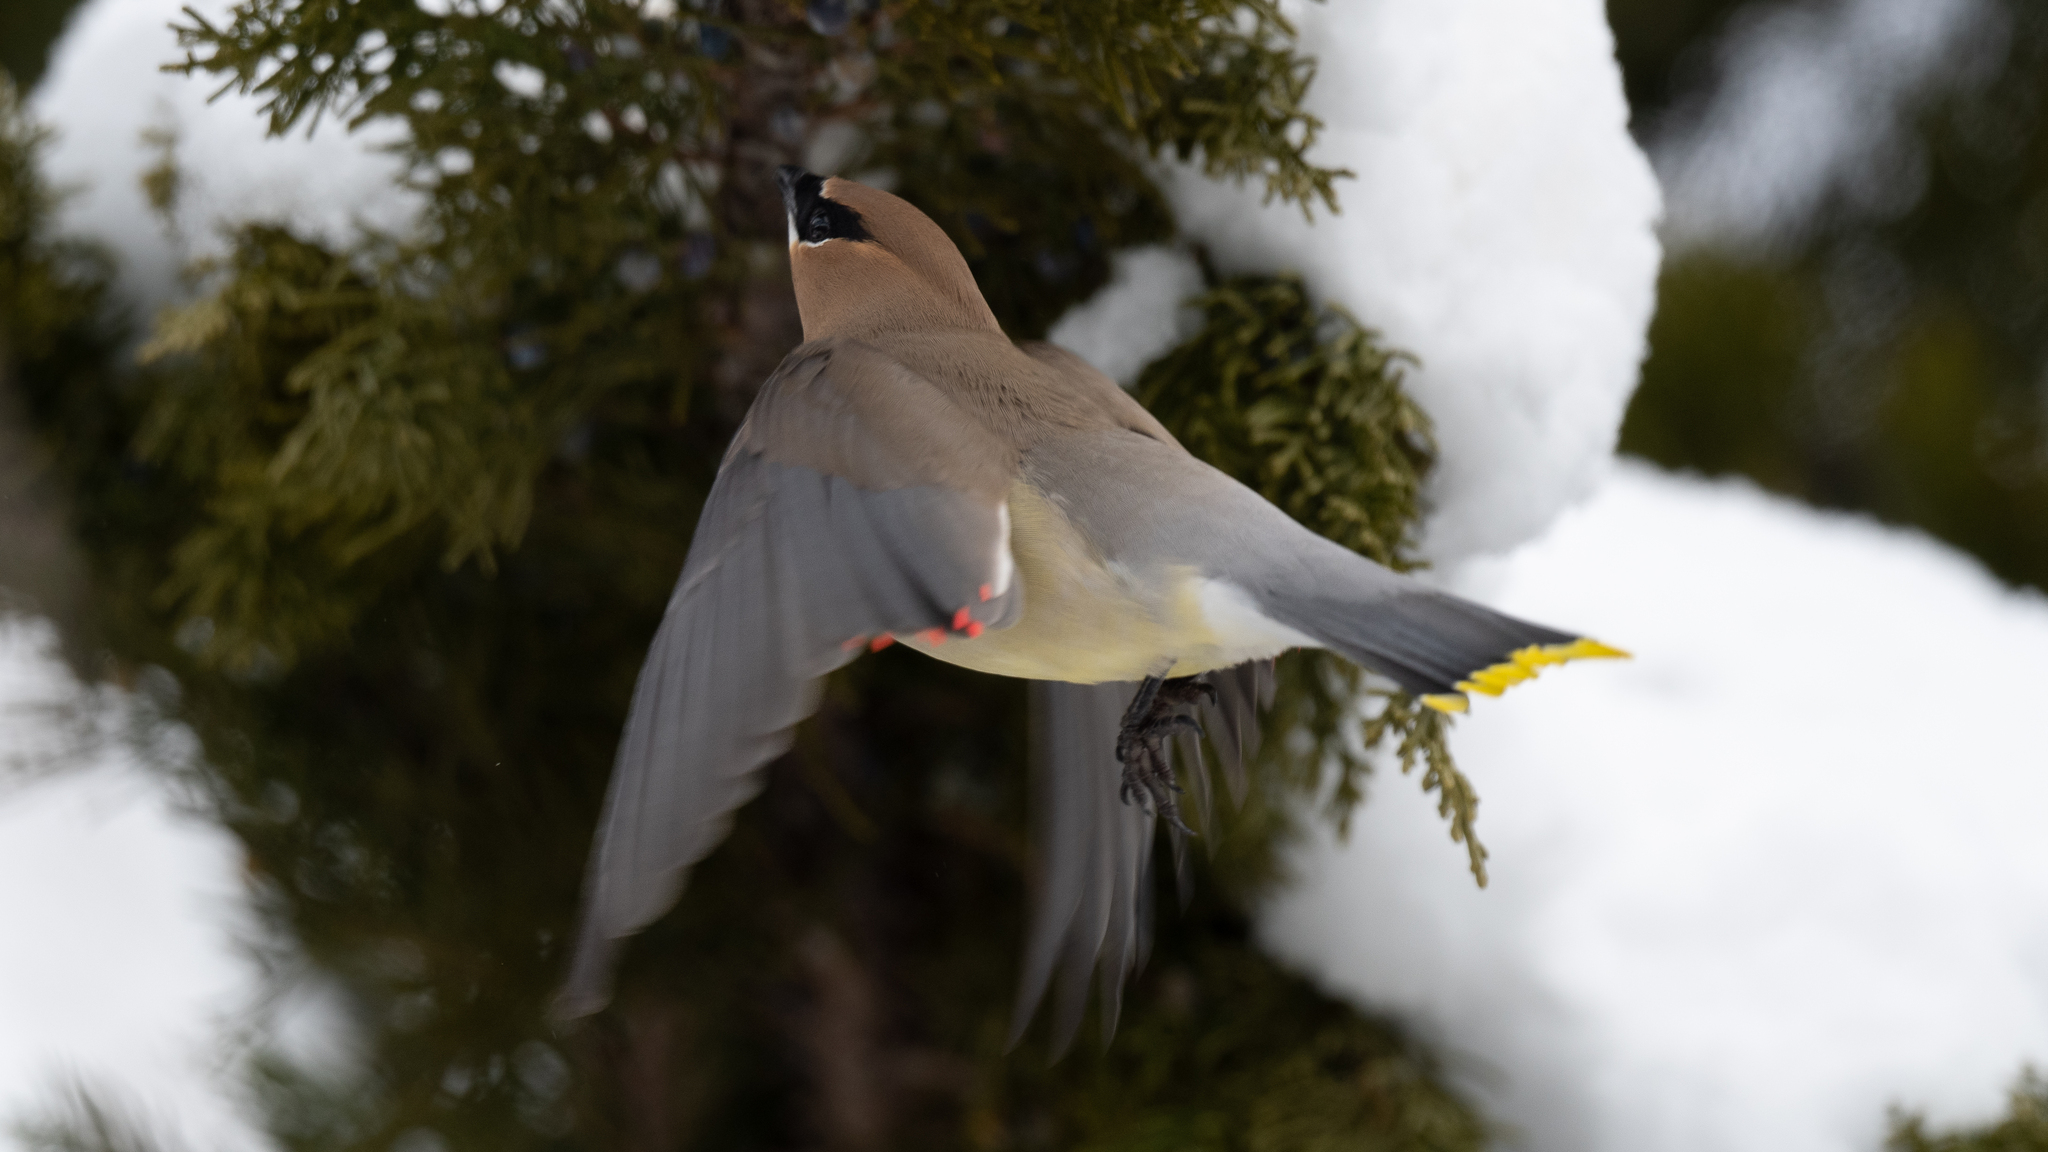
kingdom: Animalia
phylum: Chordata
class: Aves
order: Passeriformes
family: Bombycillidae
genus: Bombycilla
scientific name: Bombycilla cedrorum
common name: Cedar waxwing
